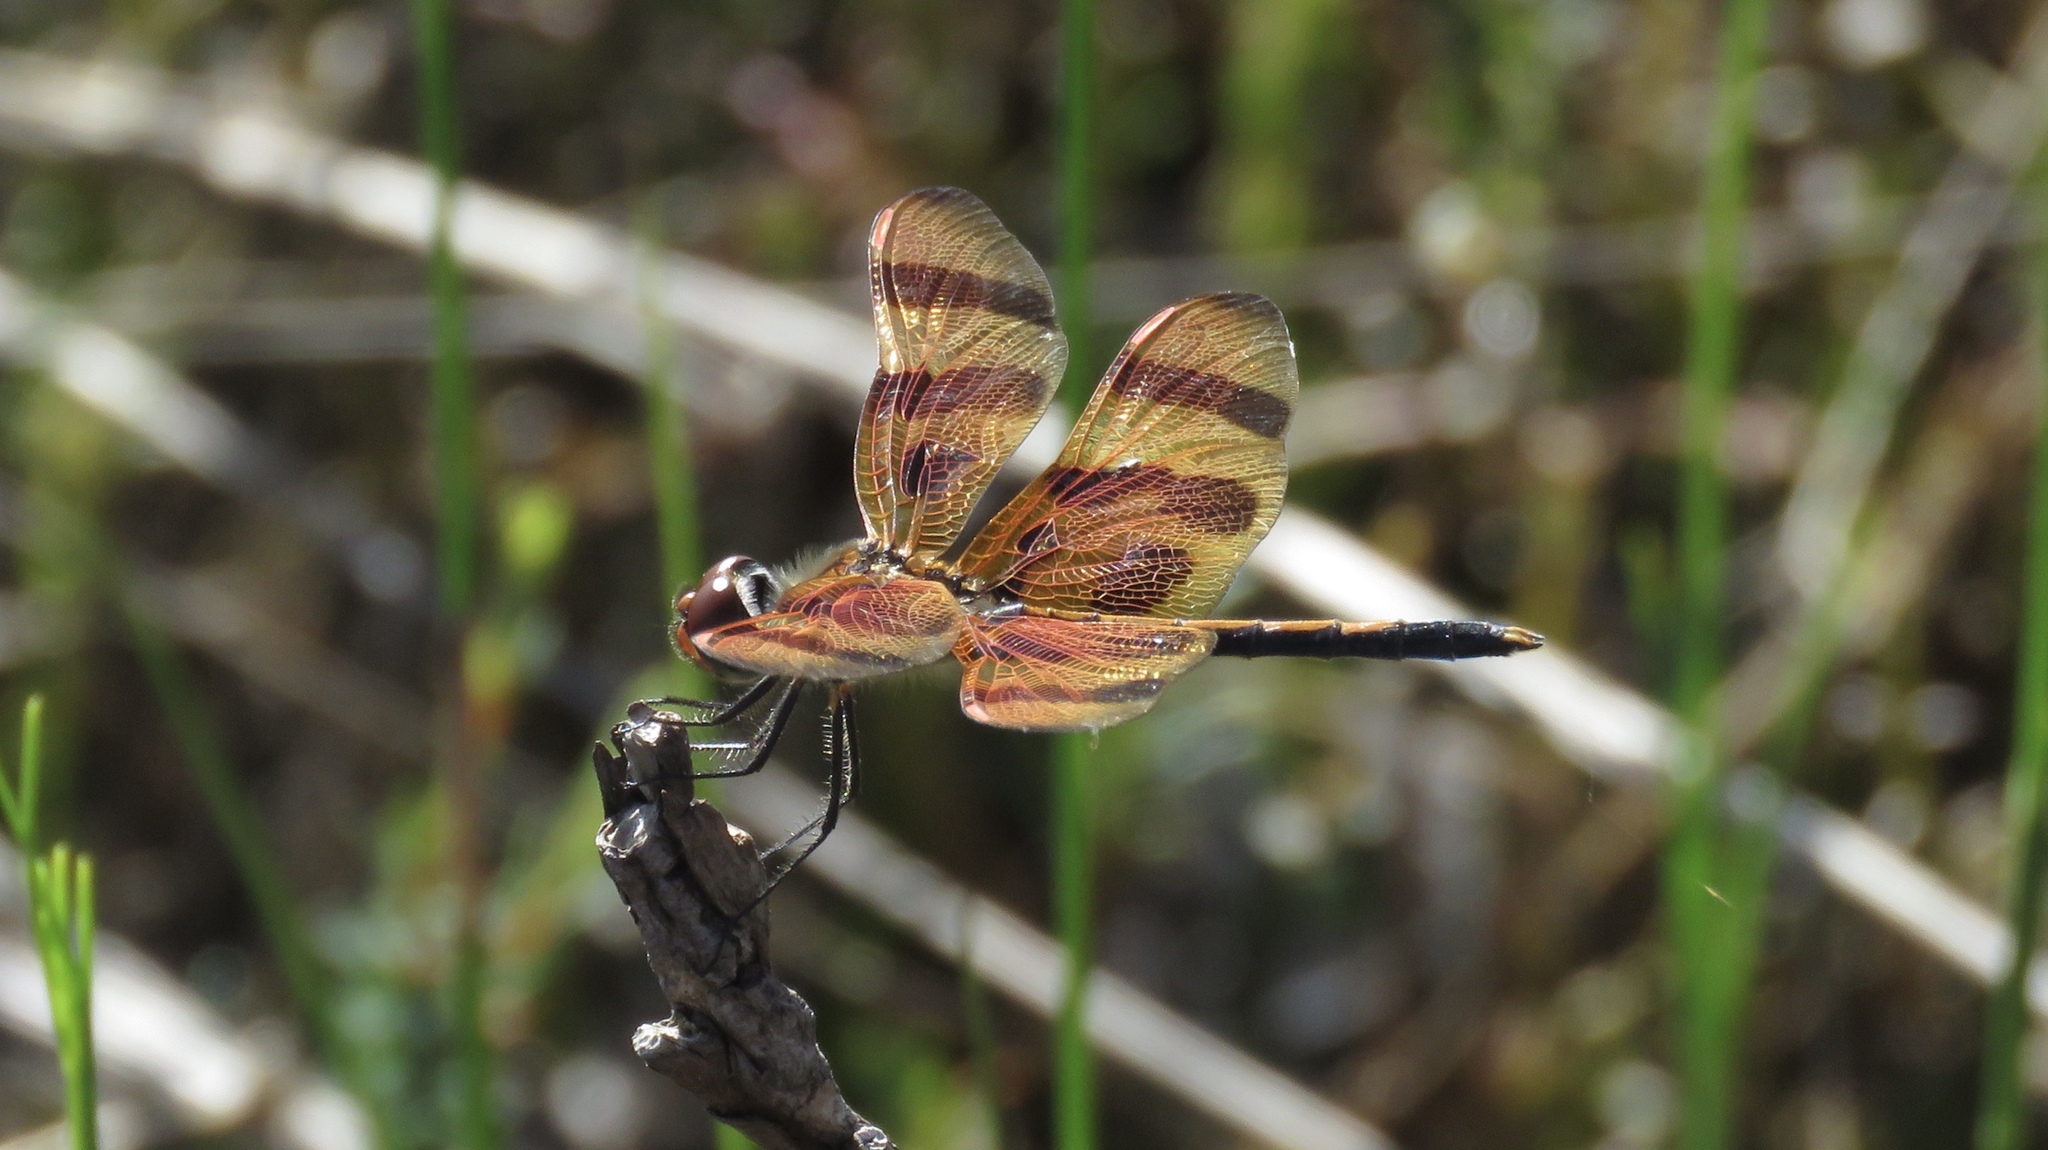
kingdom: Animalia
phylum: Arthropoda
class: Insecta
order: Odonata
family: Libellulidae
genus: Celithemis
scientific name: Celithemis eponina
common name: Halloween pennant
